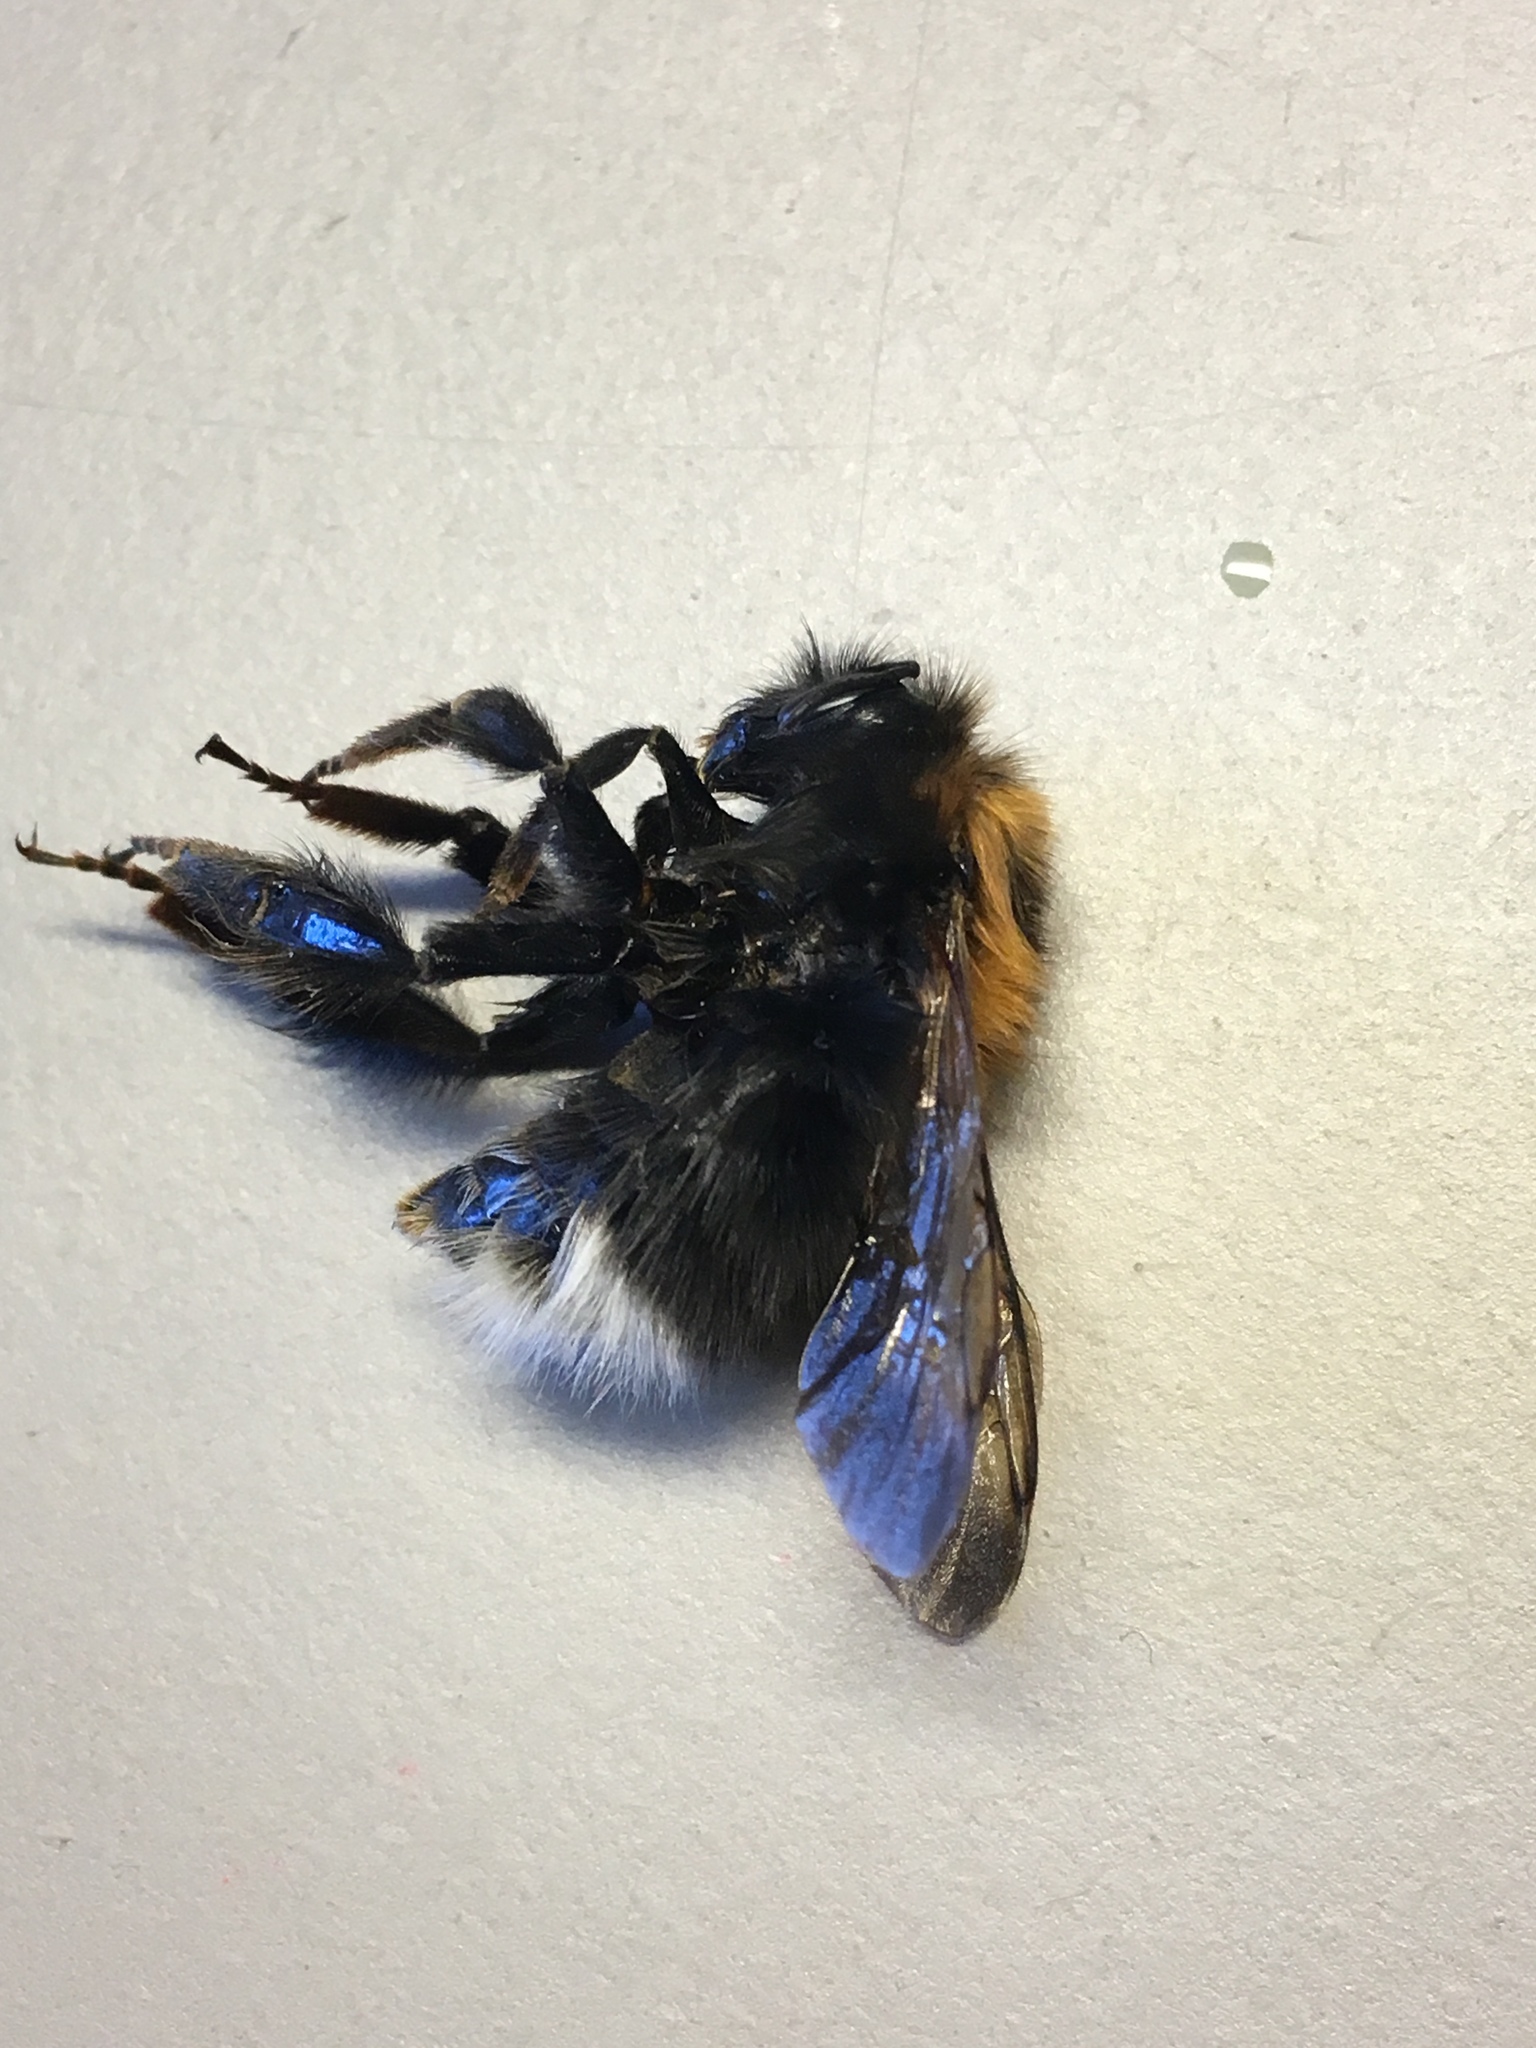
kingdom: Animalia
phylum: Arthropoda
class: Insecta
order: Hymenoptera
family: Apidae
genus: Bombus
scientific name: Bombus hypnorum
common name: New garden bumblebee
